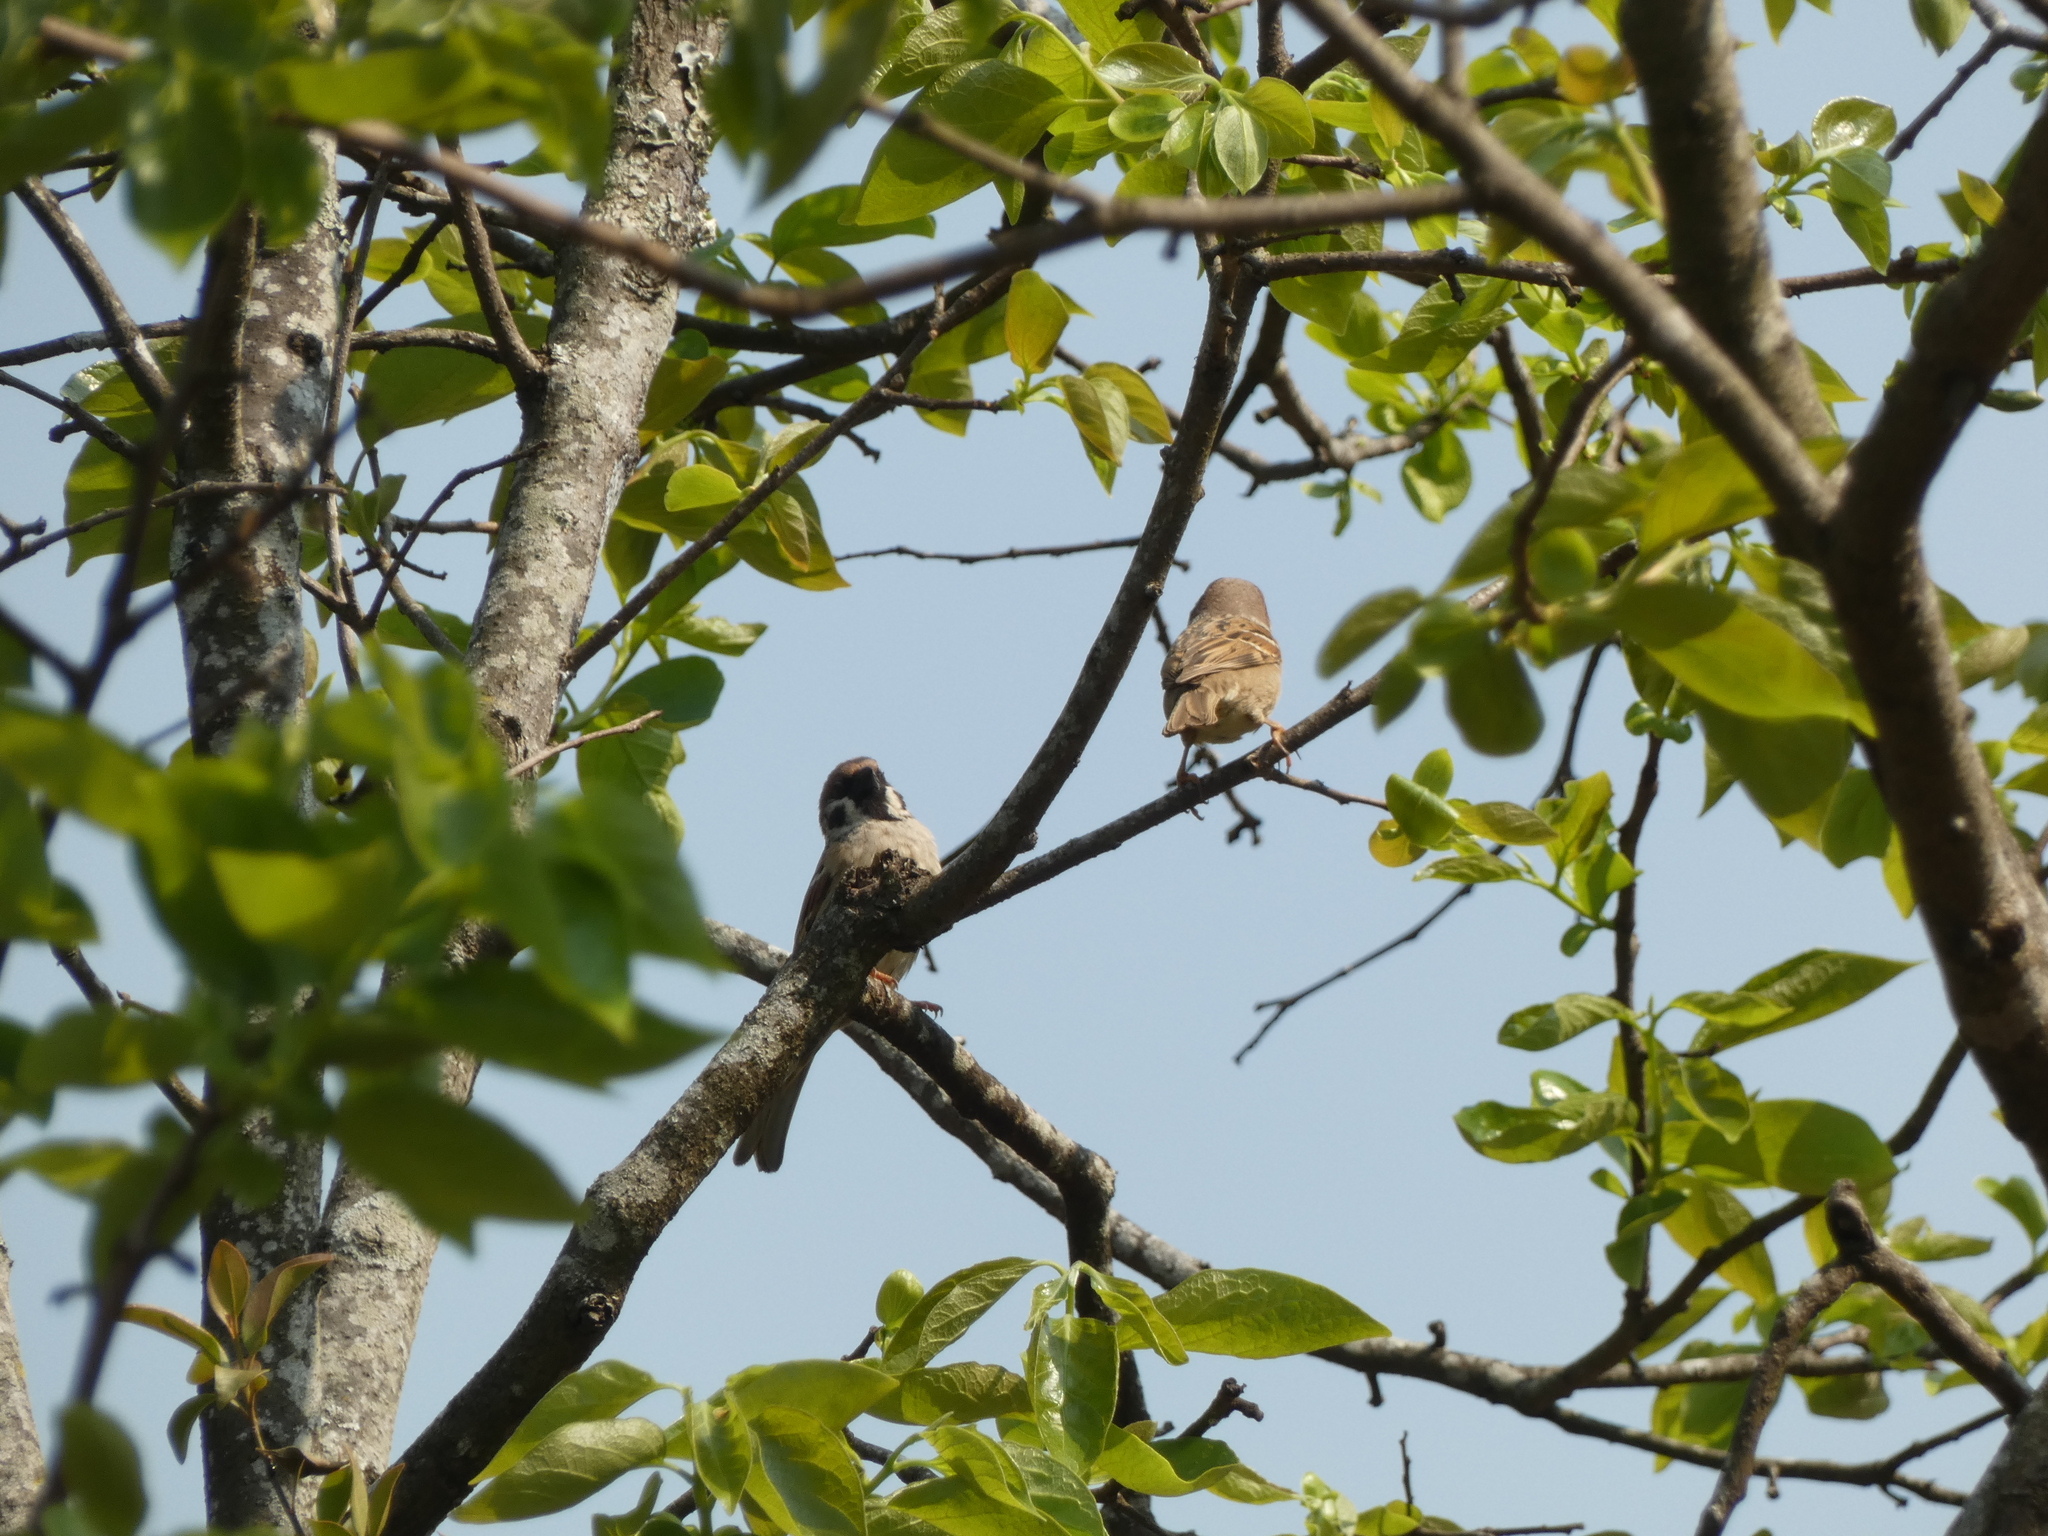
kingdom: Animalia
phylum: Chordata
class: Aves
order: Passeriformes
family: Passeridae
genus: Passer
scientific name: Passer montanus
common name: Eurasian tree sparrow
